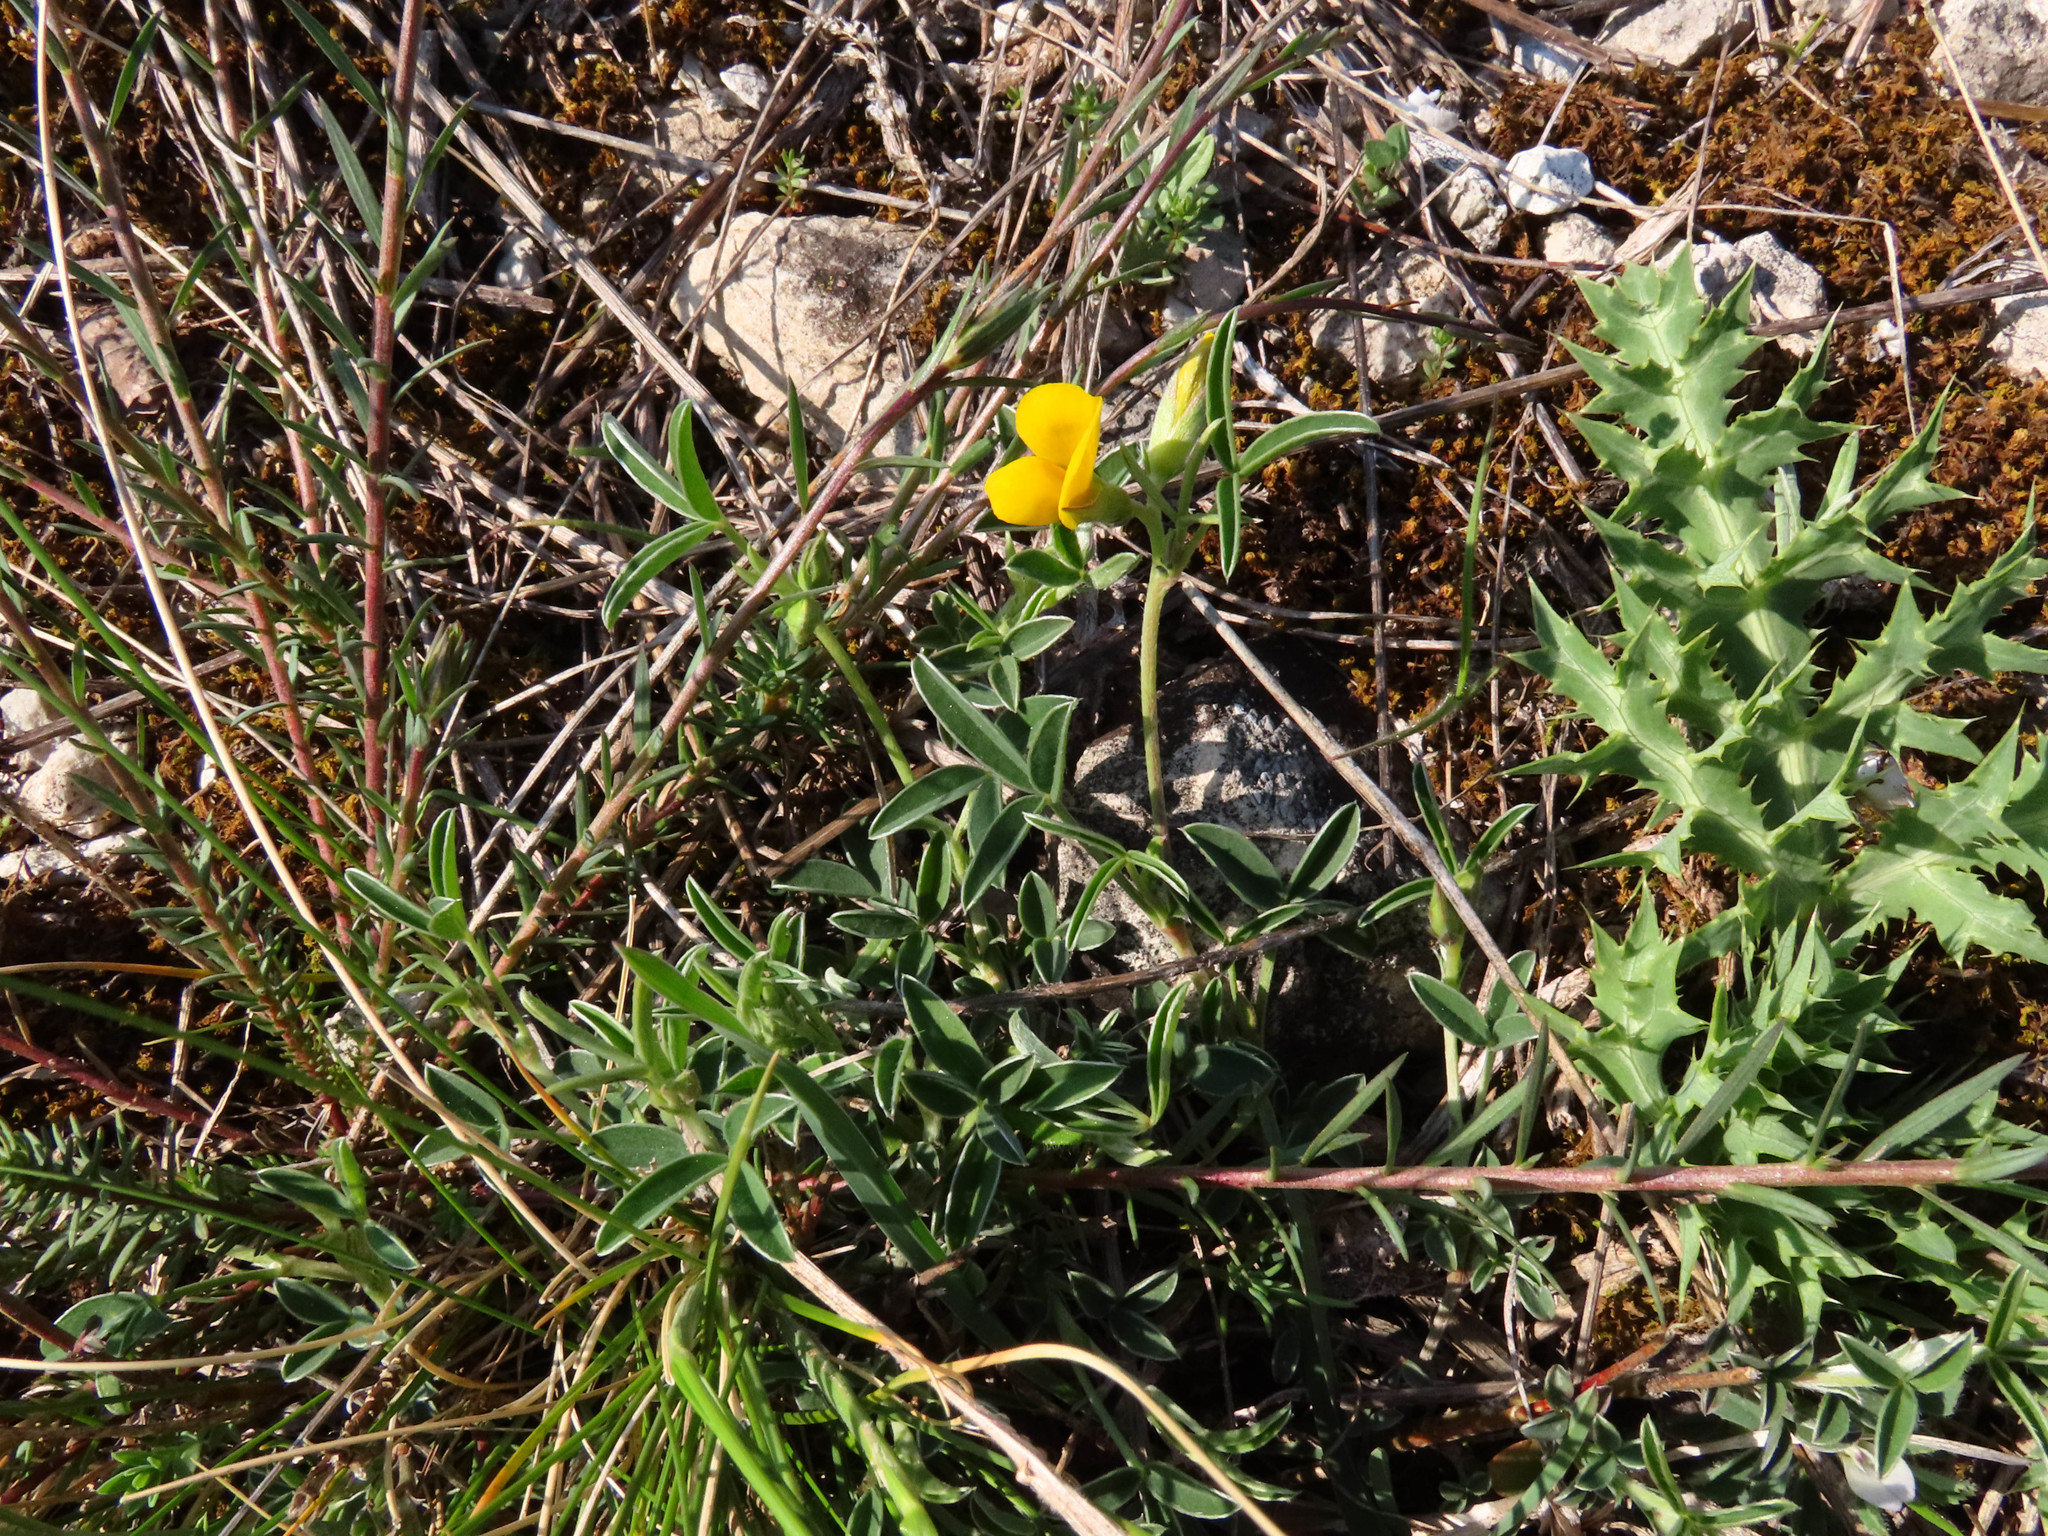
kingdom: Plantae
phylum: Tracheophyta
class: Magnoliopsida
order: Fabales
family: Fabaceae
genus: Argyrolobium
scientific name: Argyrolobium zanonii
